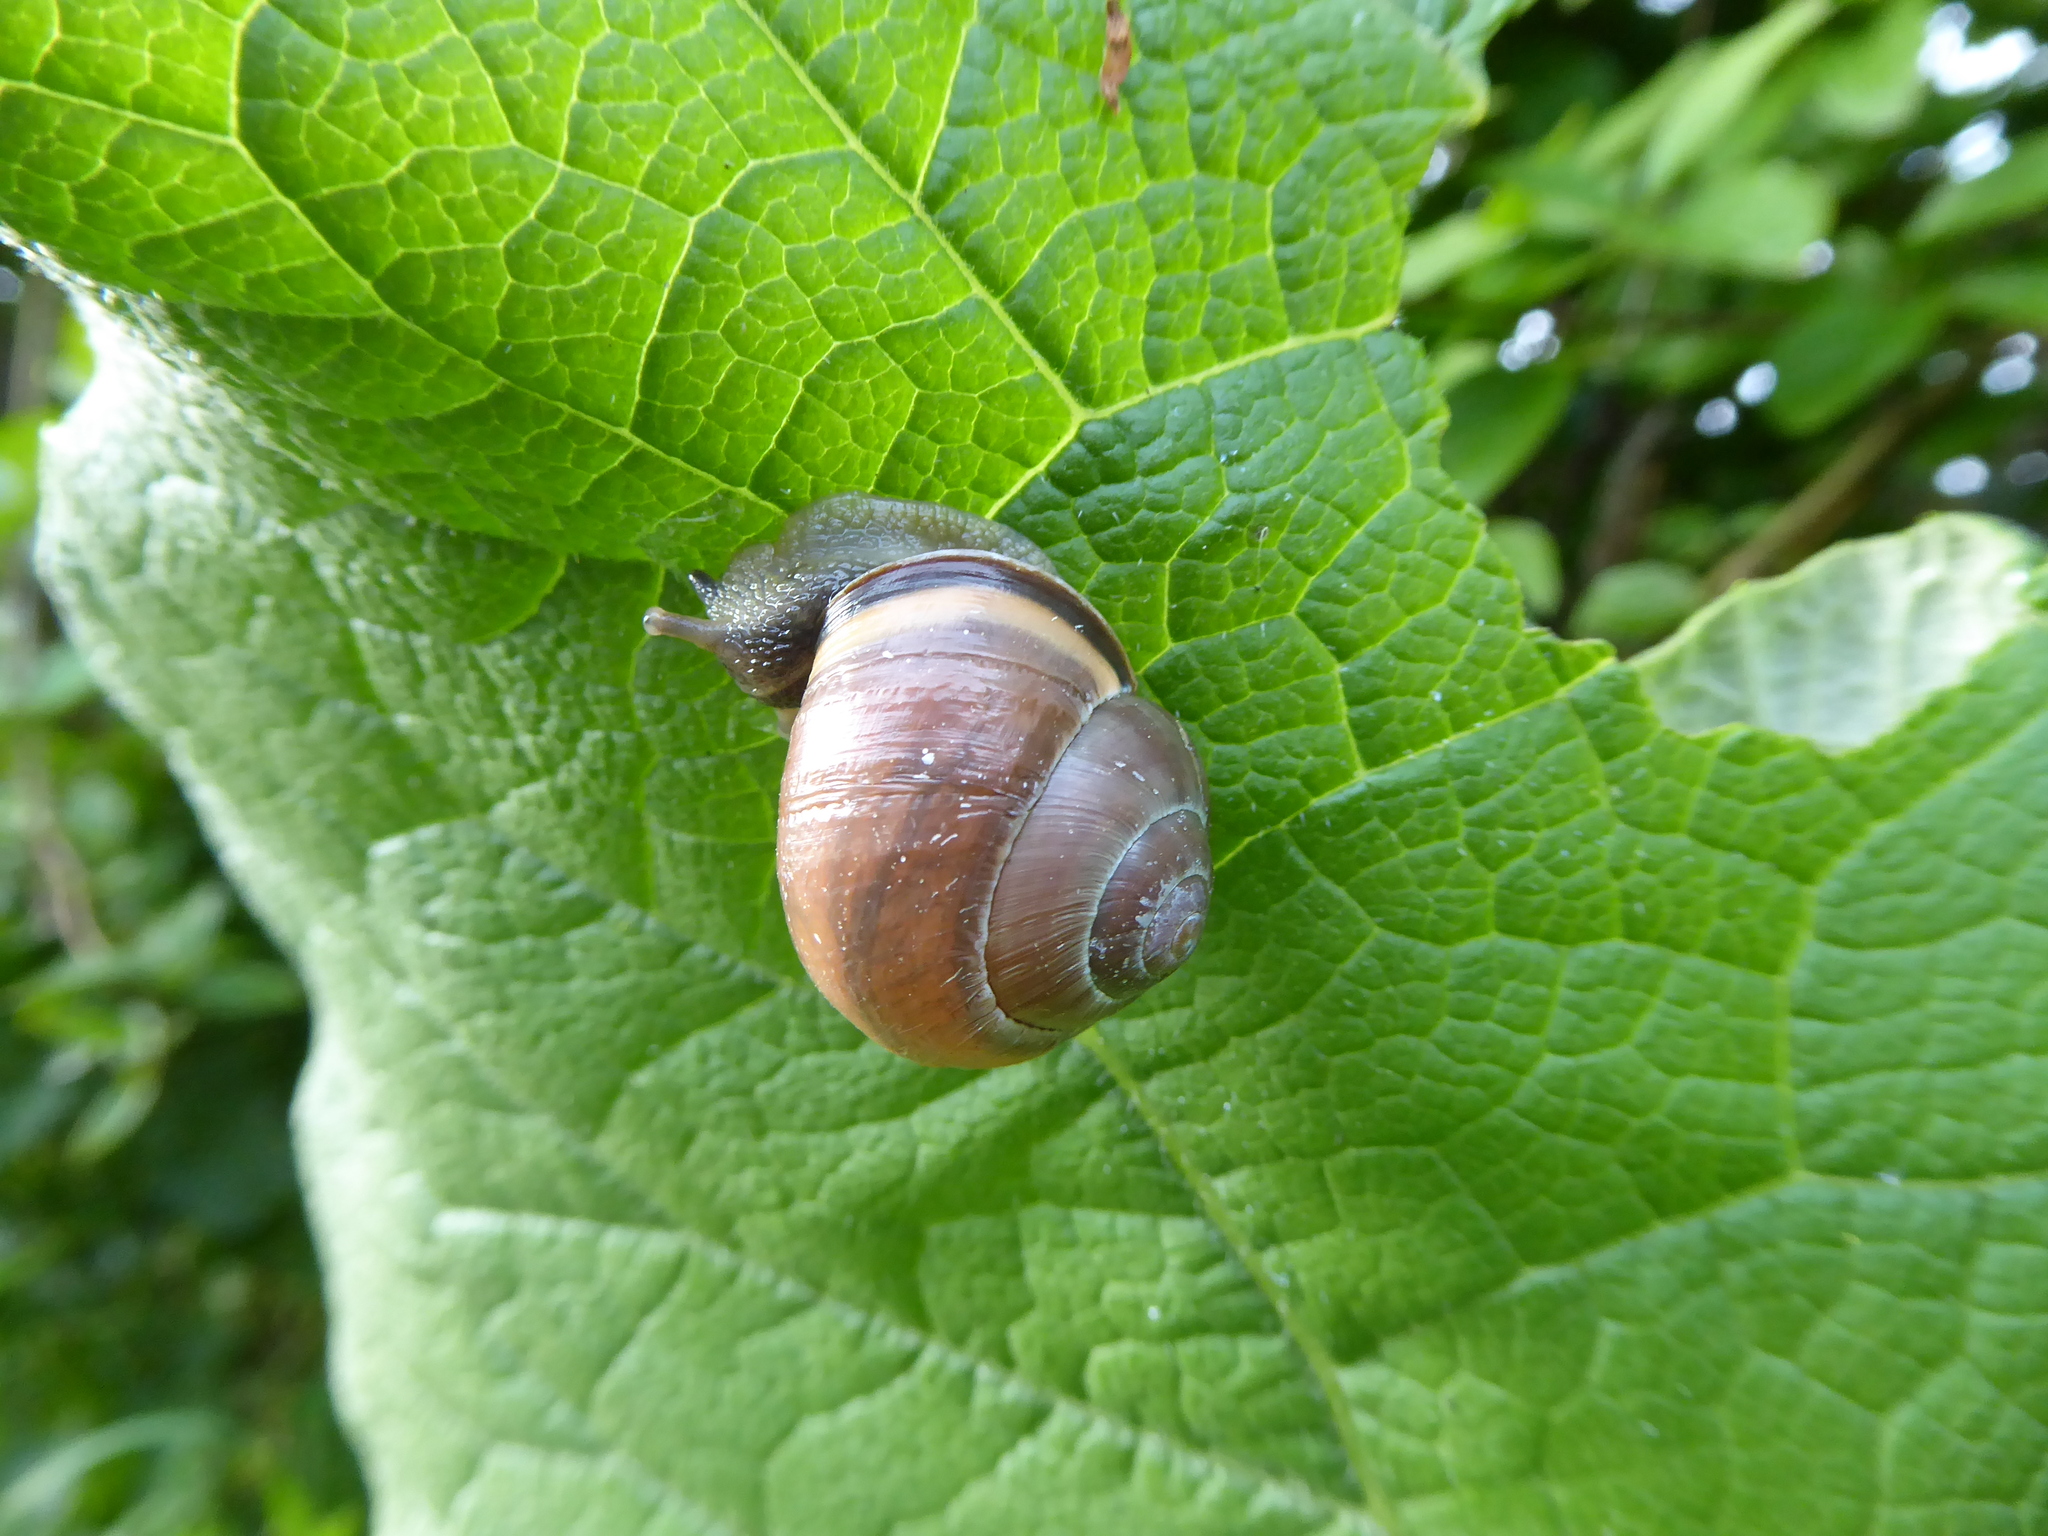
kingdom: Animalia
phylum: Mollusca
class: Gastropoda
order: Stylommatophora
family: Helicidae
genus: Cepaea
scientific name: Cepaea nemoralis
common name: Grovesnail
